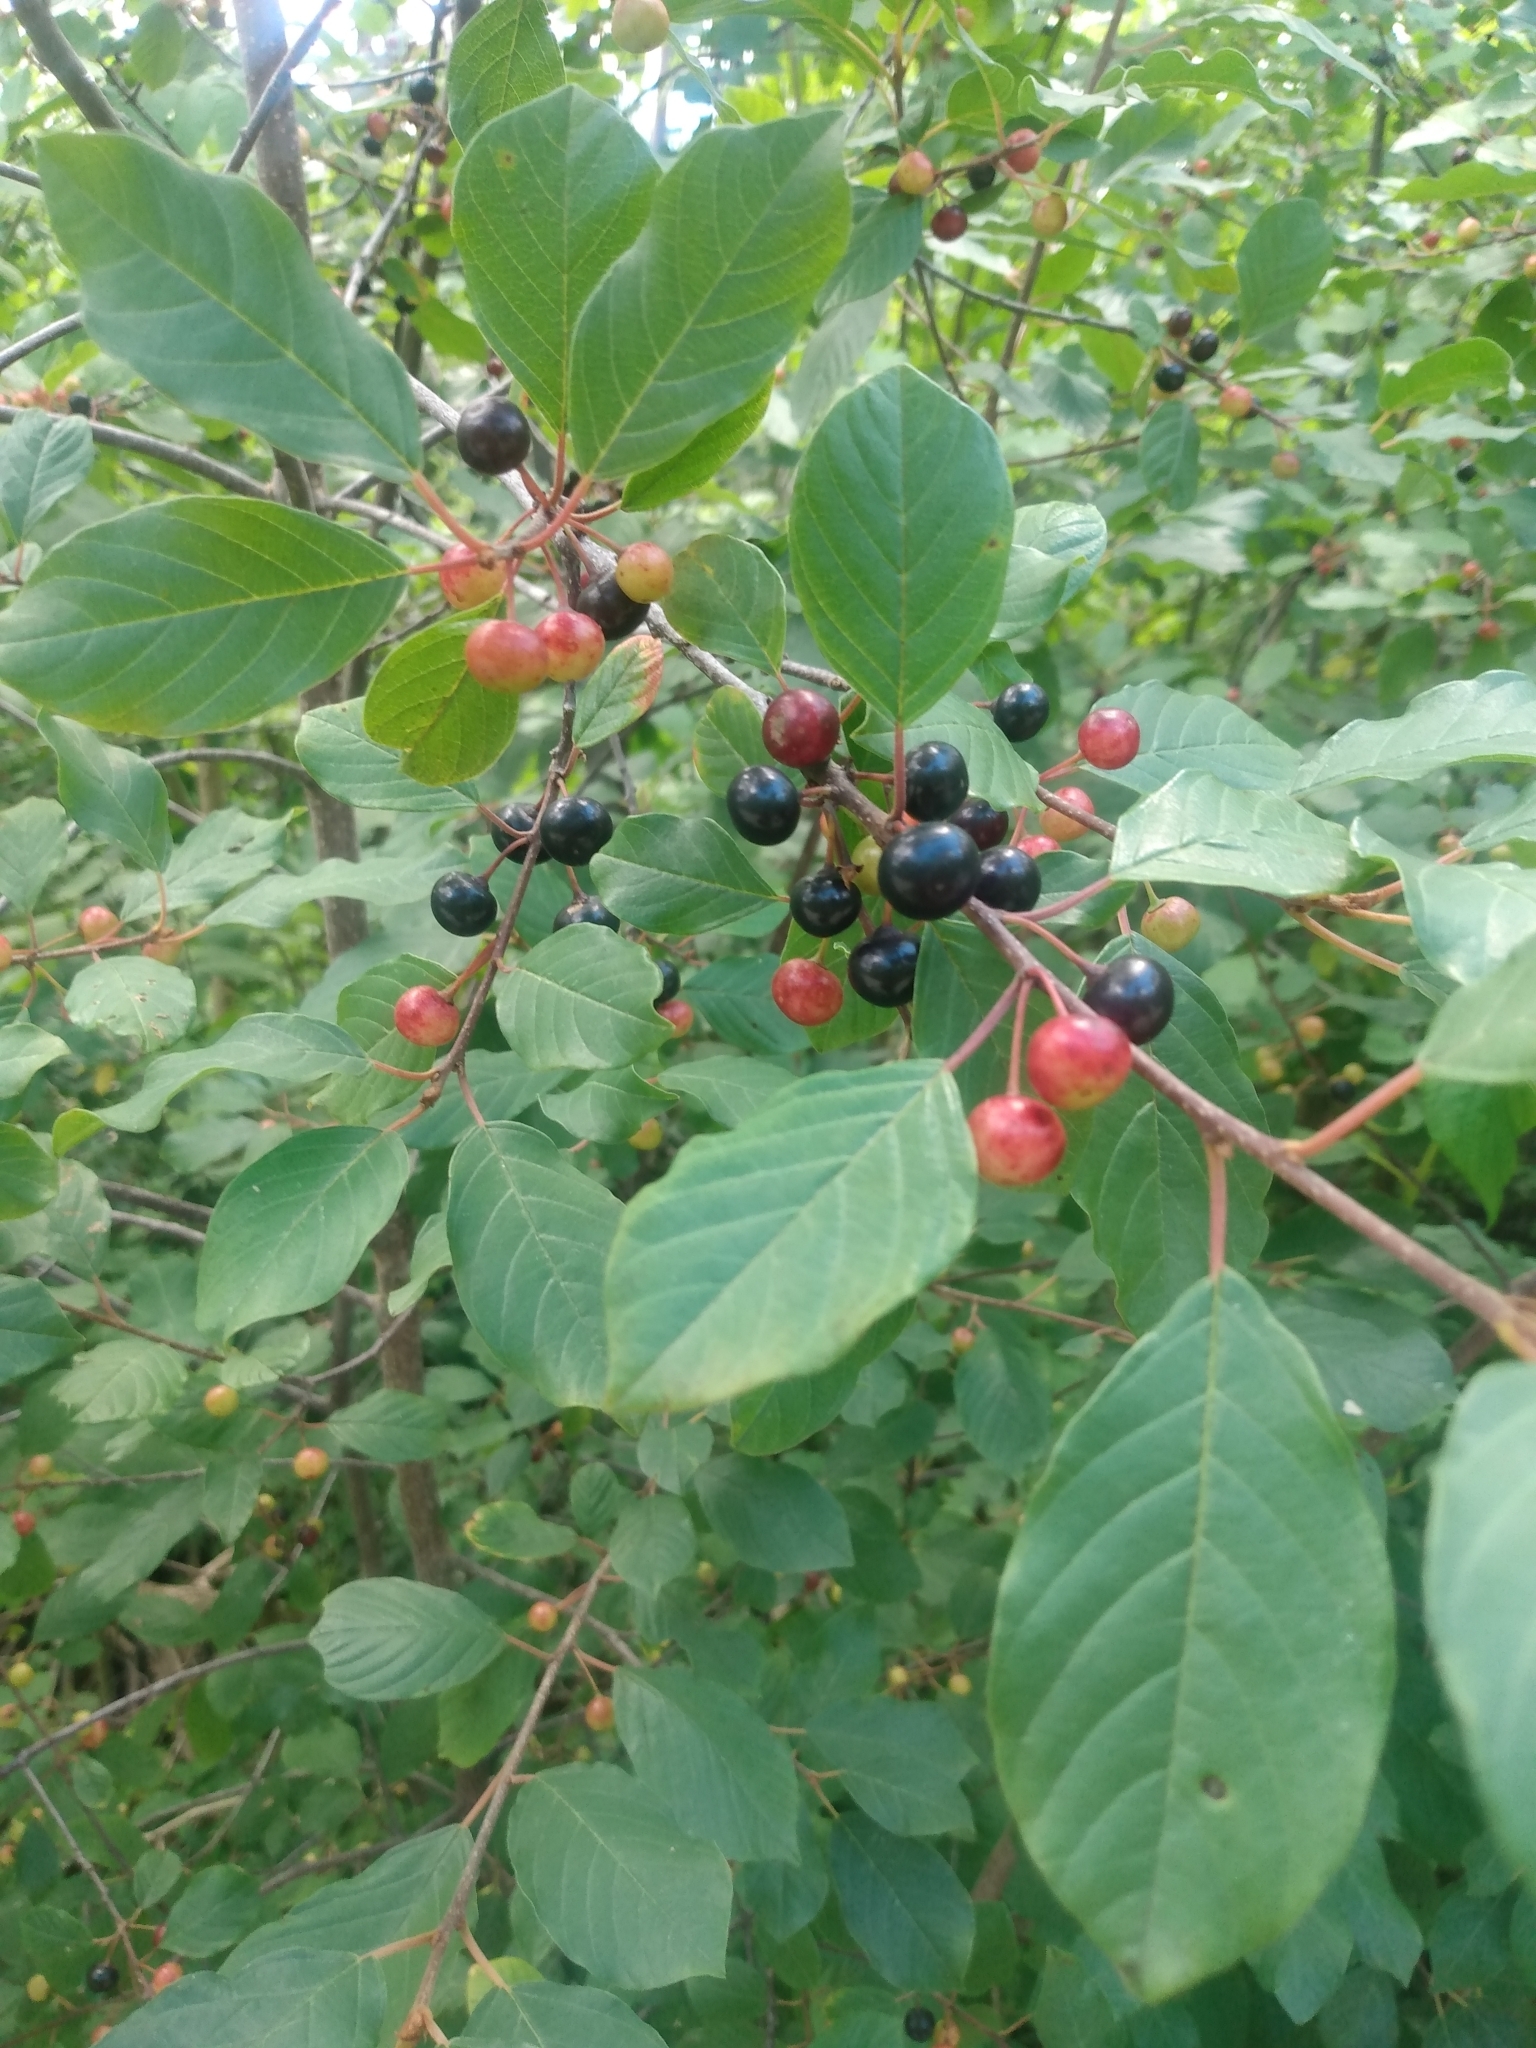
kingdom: Plantae
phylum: Tracheophyta
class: Magnoliopsida
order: Rosales
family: Rhamnaceae
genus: Frangula
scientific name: Frangula alnus
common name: Alder buckthorn
